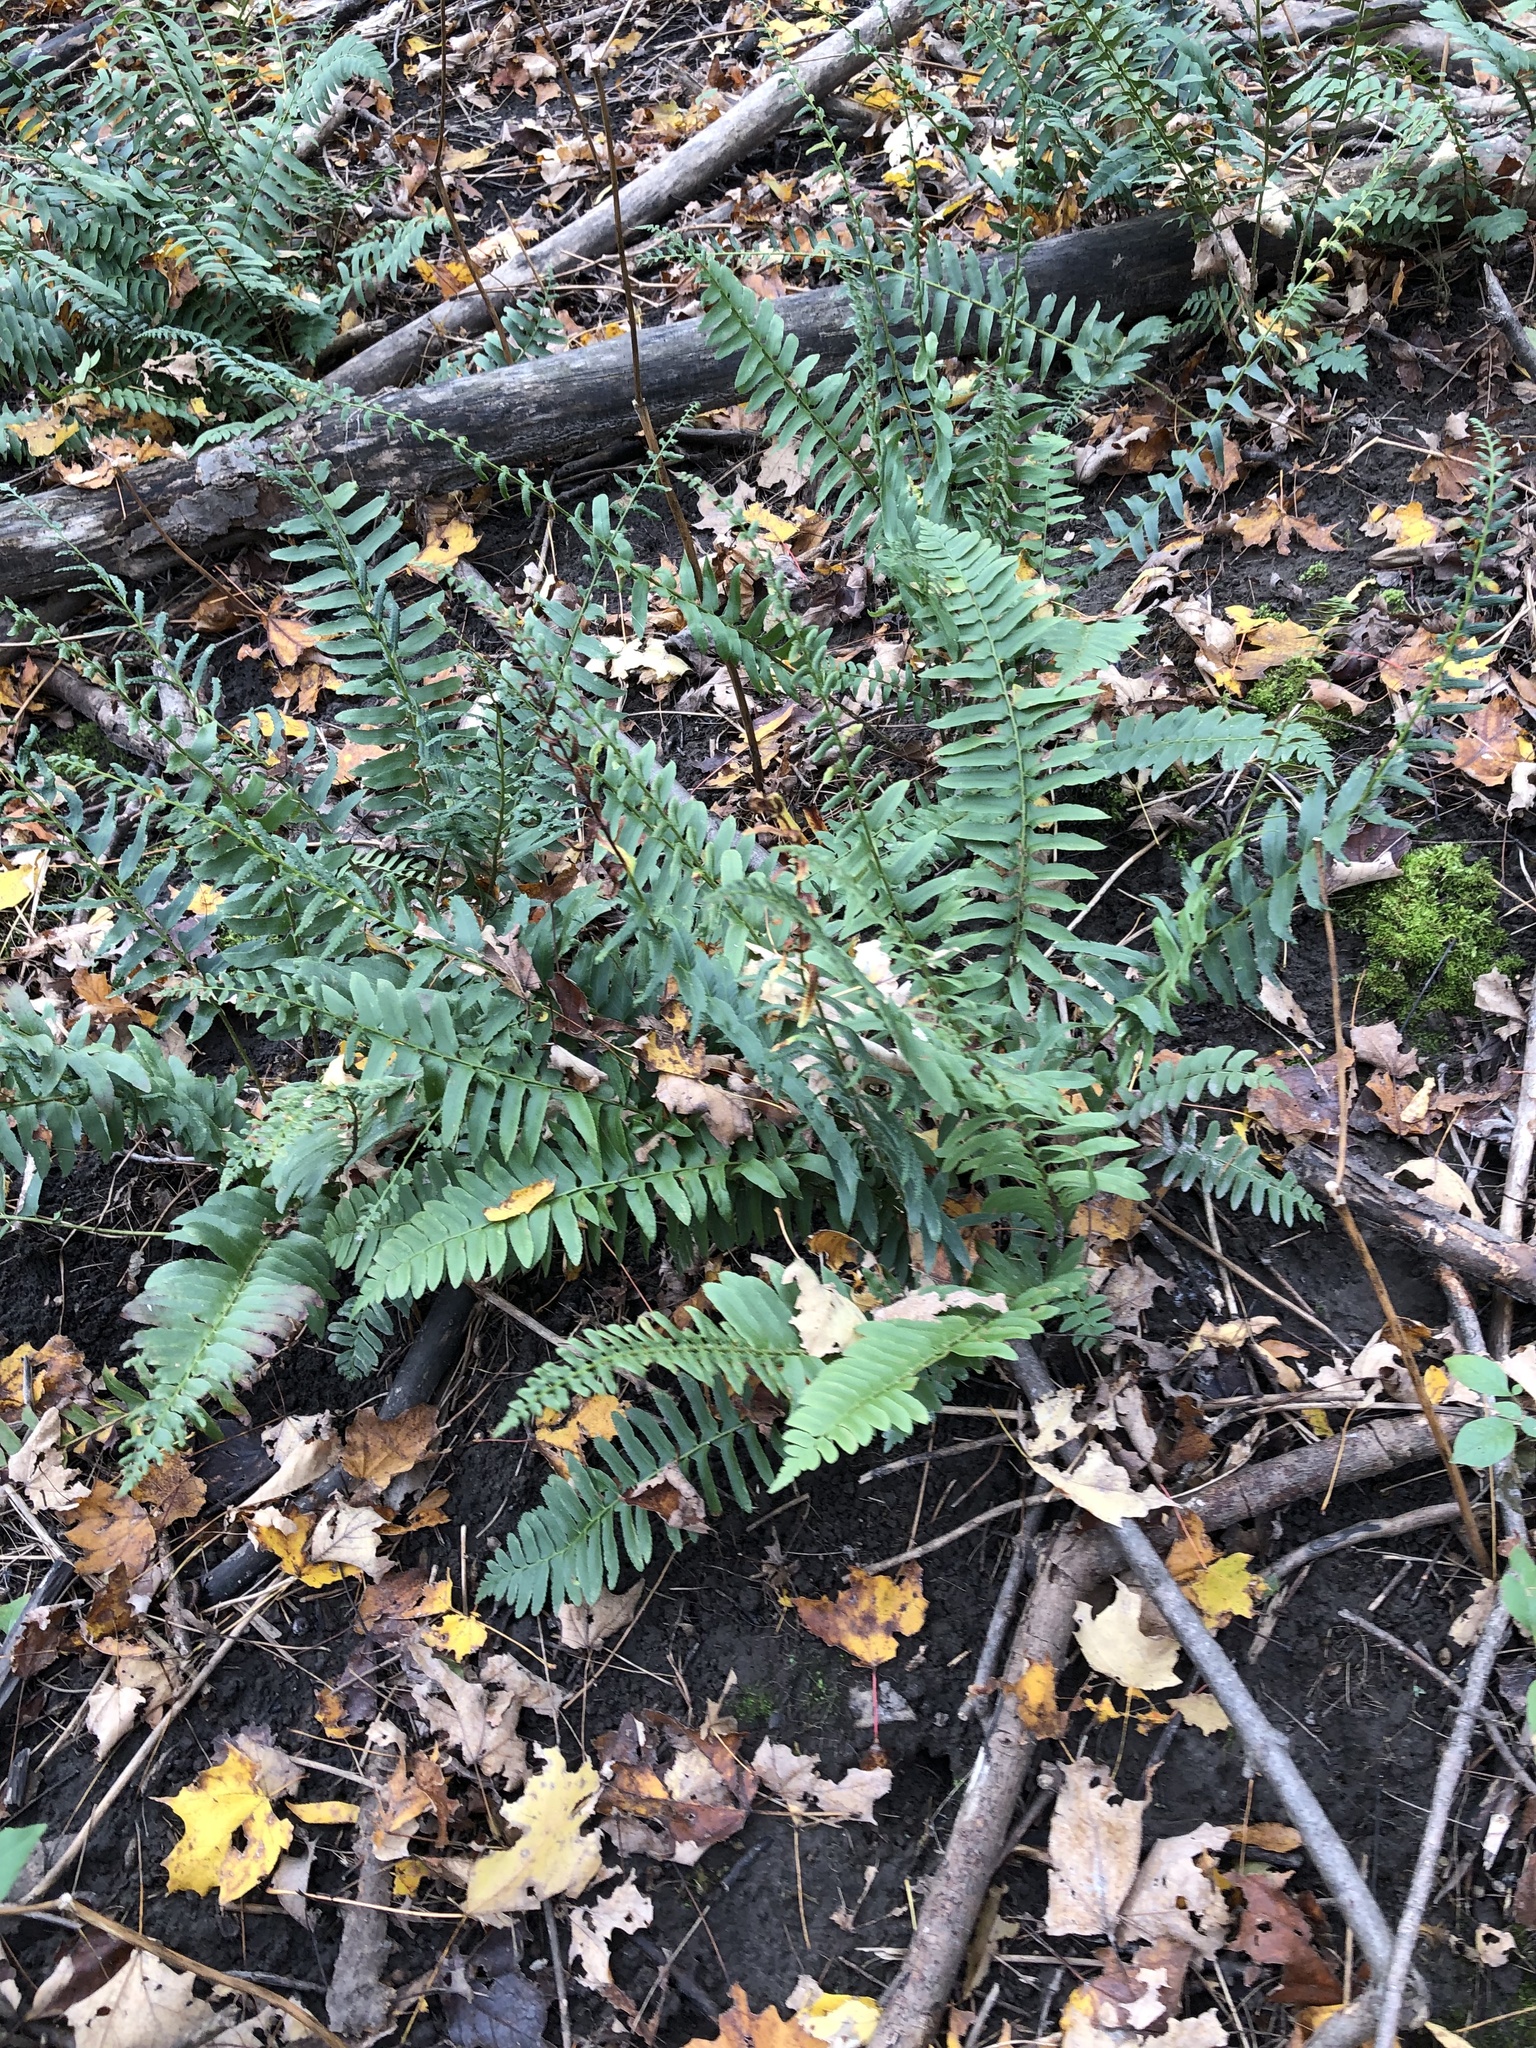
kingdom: Plantae
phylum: Tracheophyta
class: Polypodiopsida
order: Polypodiales
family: Dryopteridaceae
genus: Polystichum
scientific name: Polystichum acrostichoides
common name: Christmas fern
